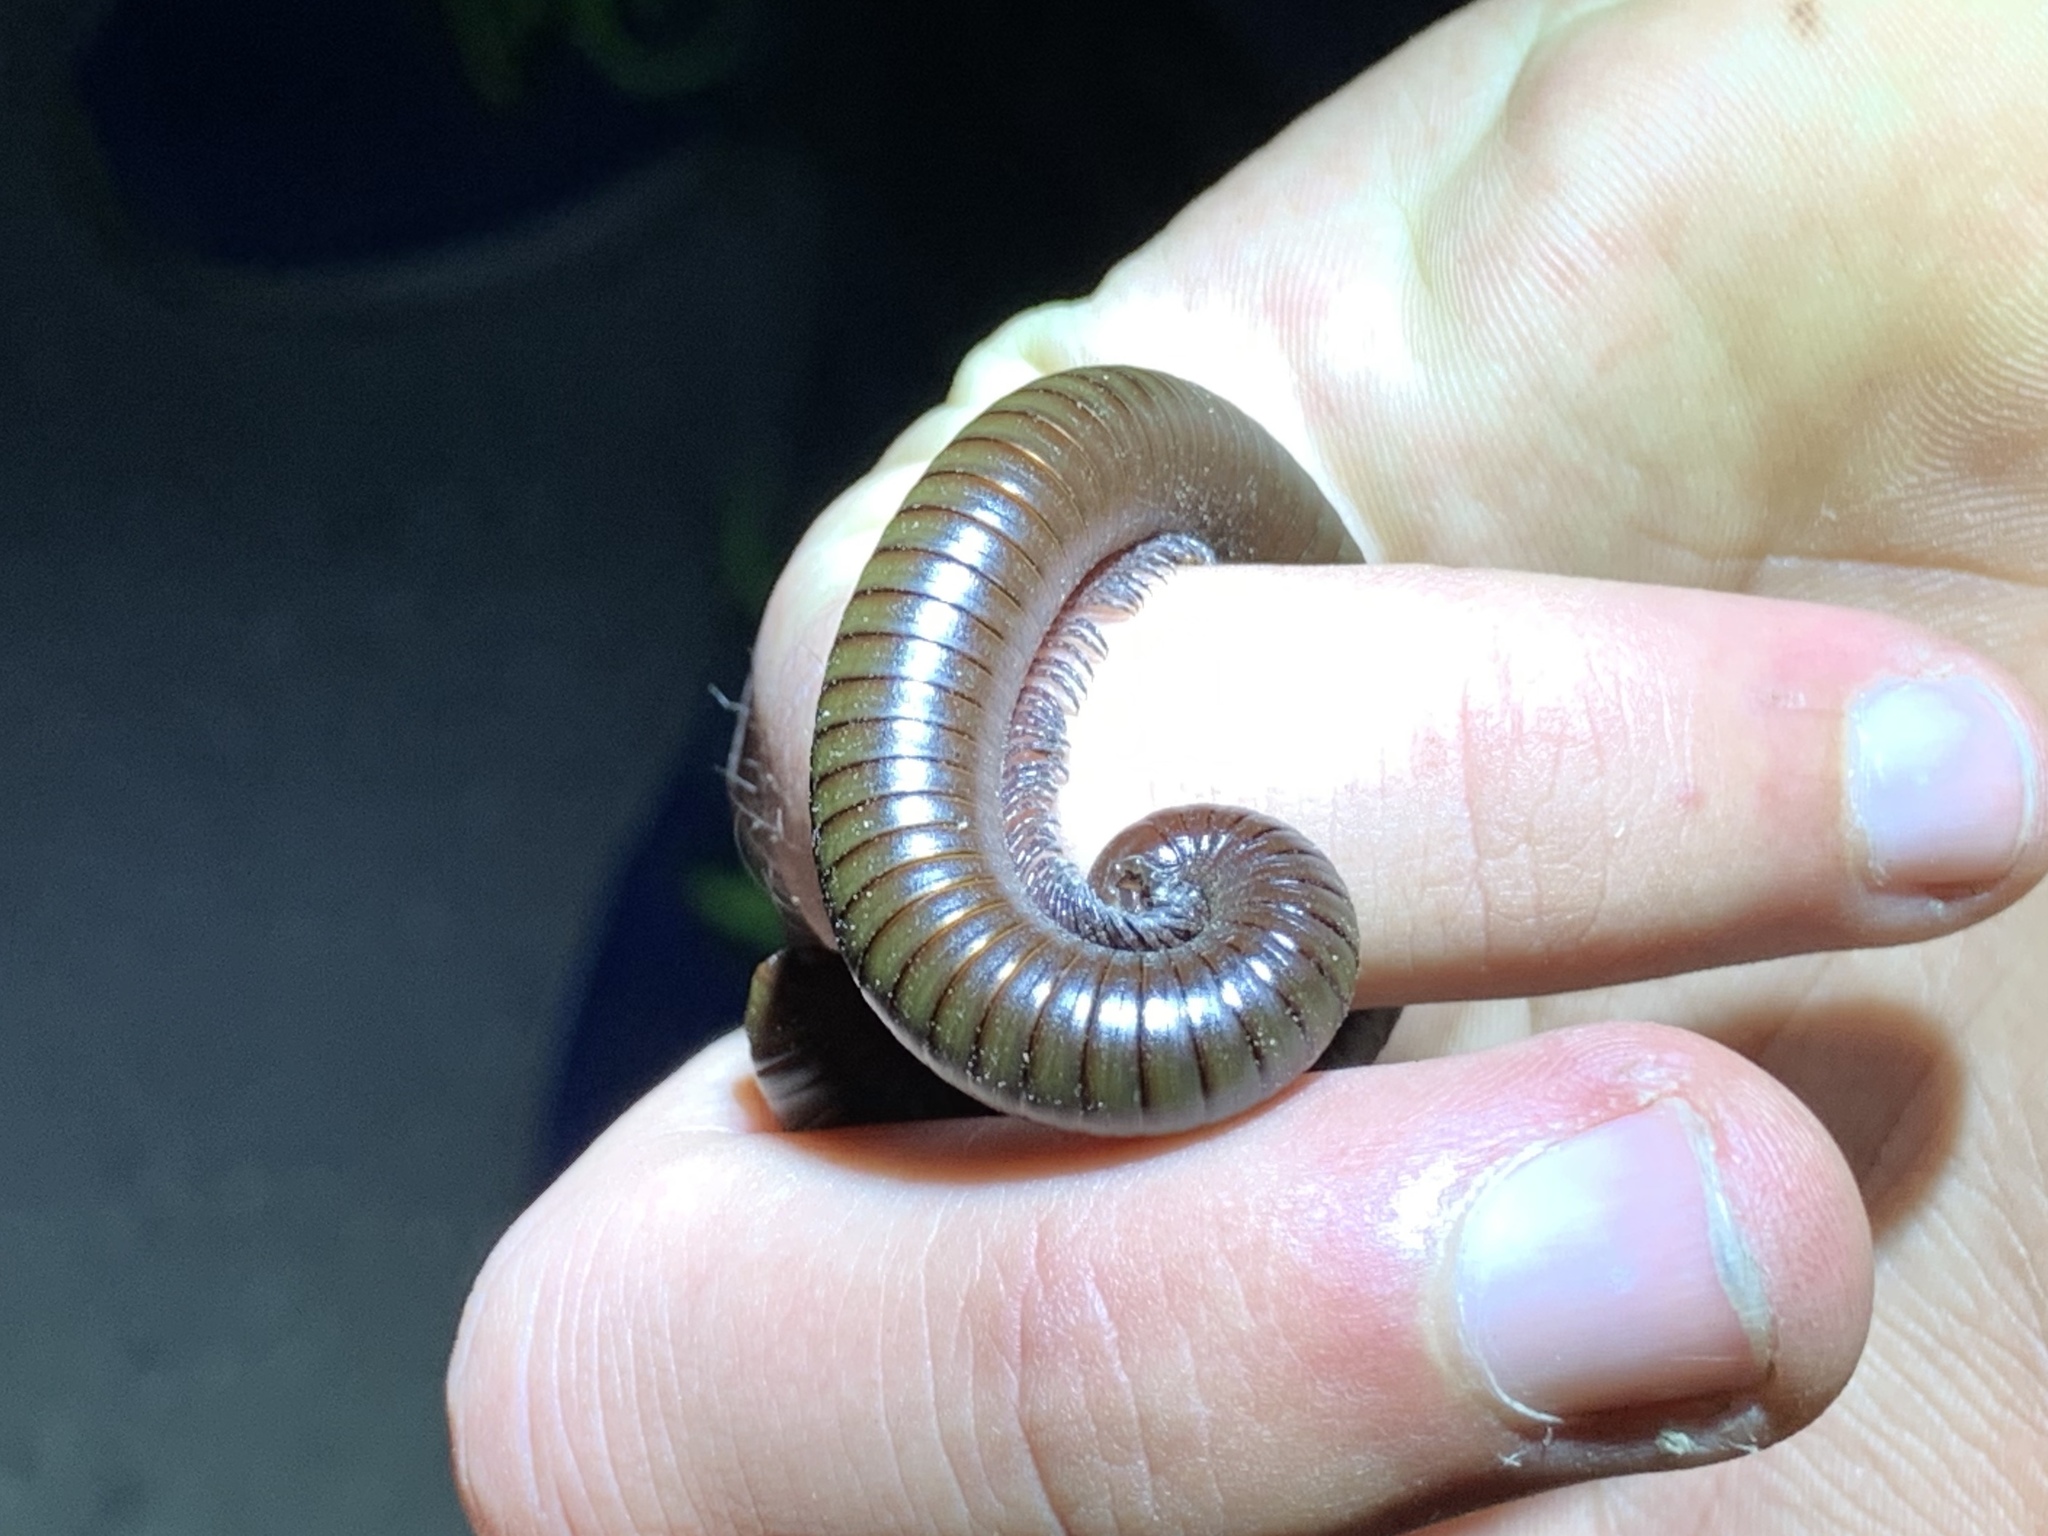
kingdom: Animalia
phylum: Arthropoda
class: Diplopoda
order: Spirostreptida
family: Spirostreptidae
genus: Orthoporus
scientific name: Orthoporus ornatus
